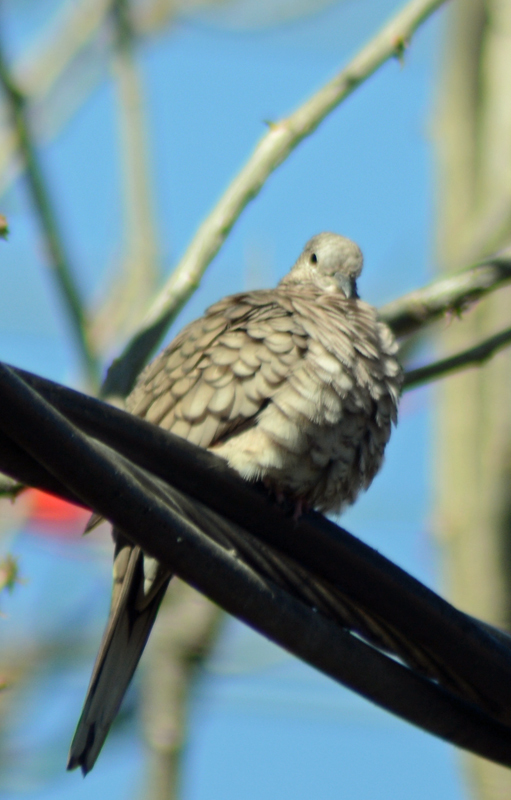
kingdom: Animalia
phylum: Chordata
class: Aves
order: Columbiformes
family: Columbidae
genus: Columbina
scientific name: Columbina inca
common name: Inca dove
